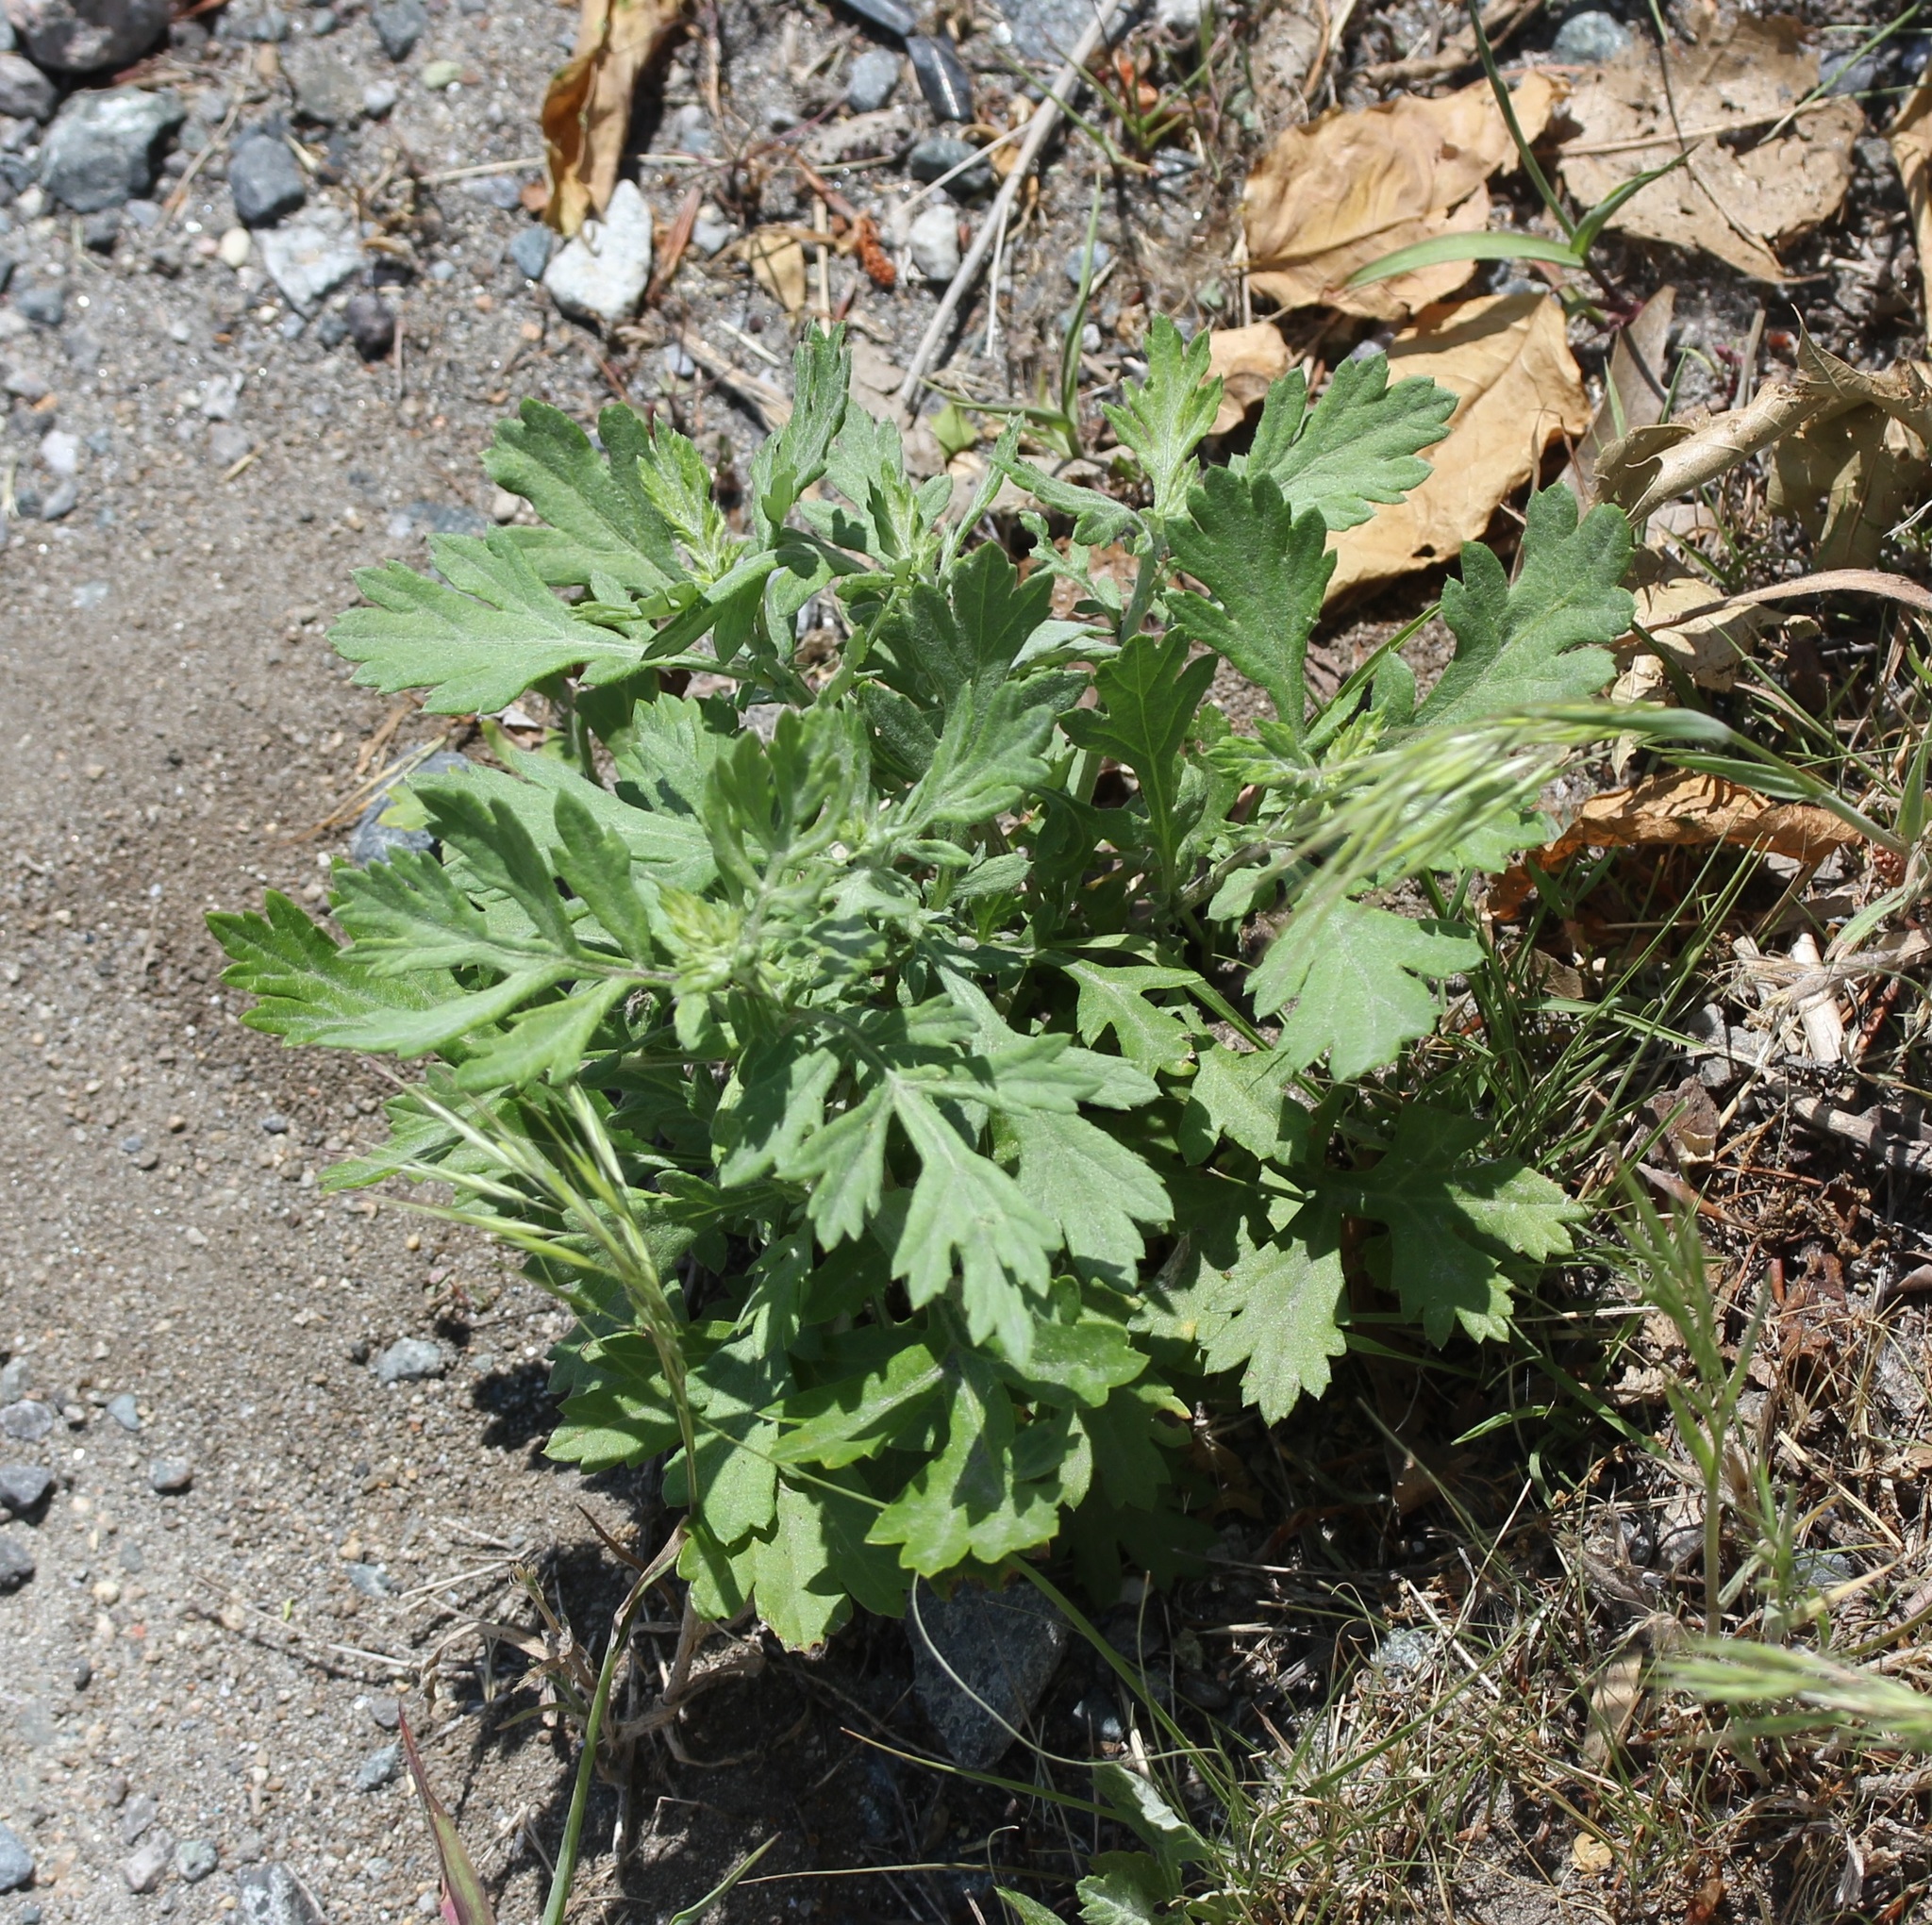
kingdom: Plantae
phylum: Tracheophyta
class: Magnoliopsida
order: Asterales
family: Asteraceae
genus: Artemisia
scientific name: Artemisia vulgaris
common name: Mugwort
